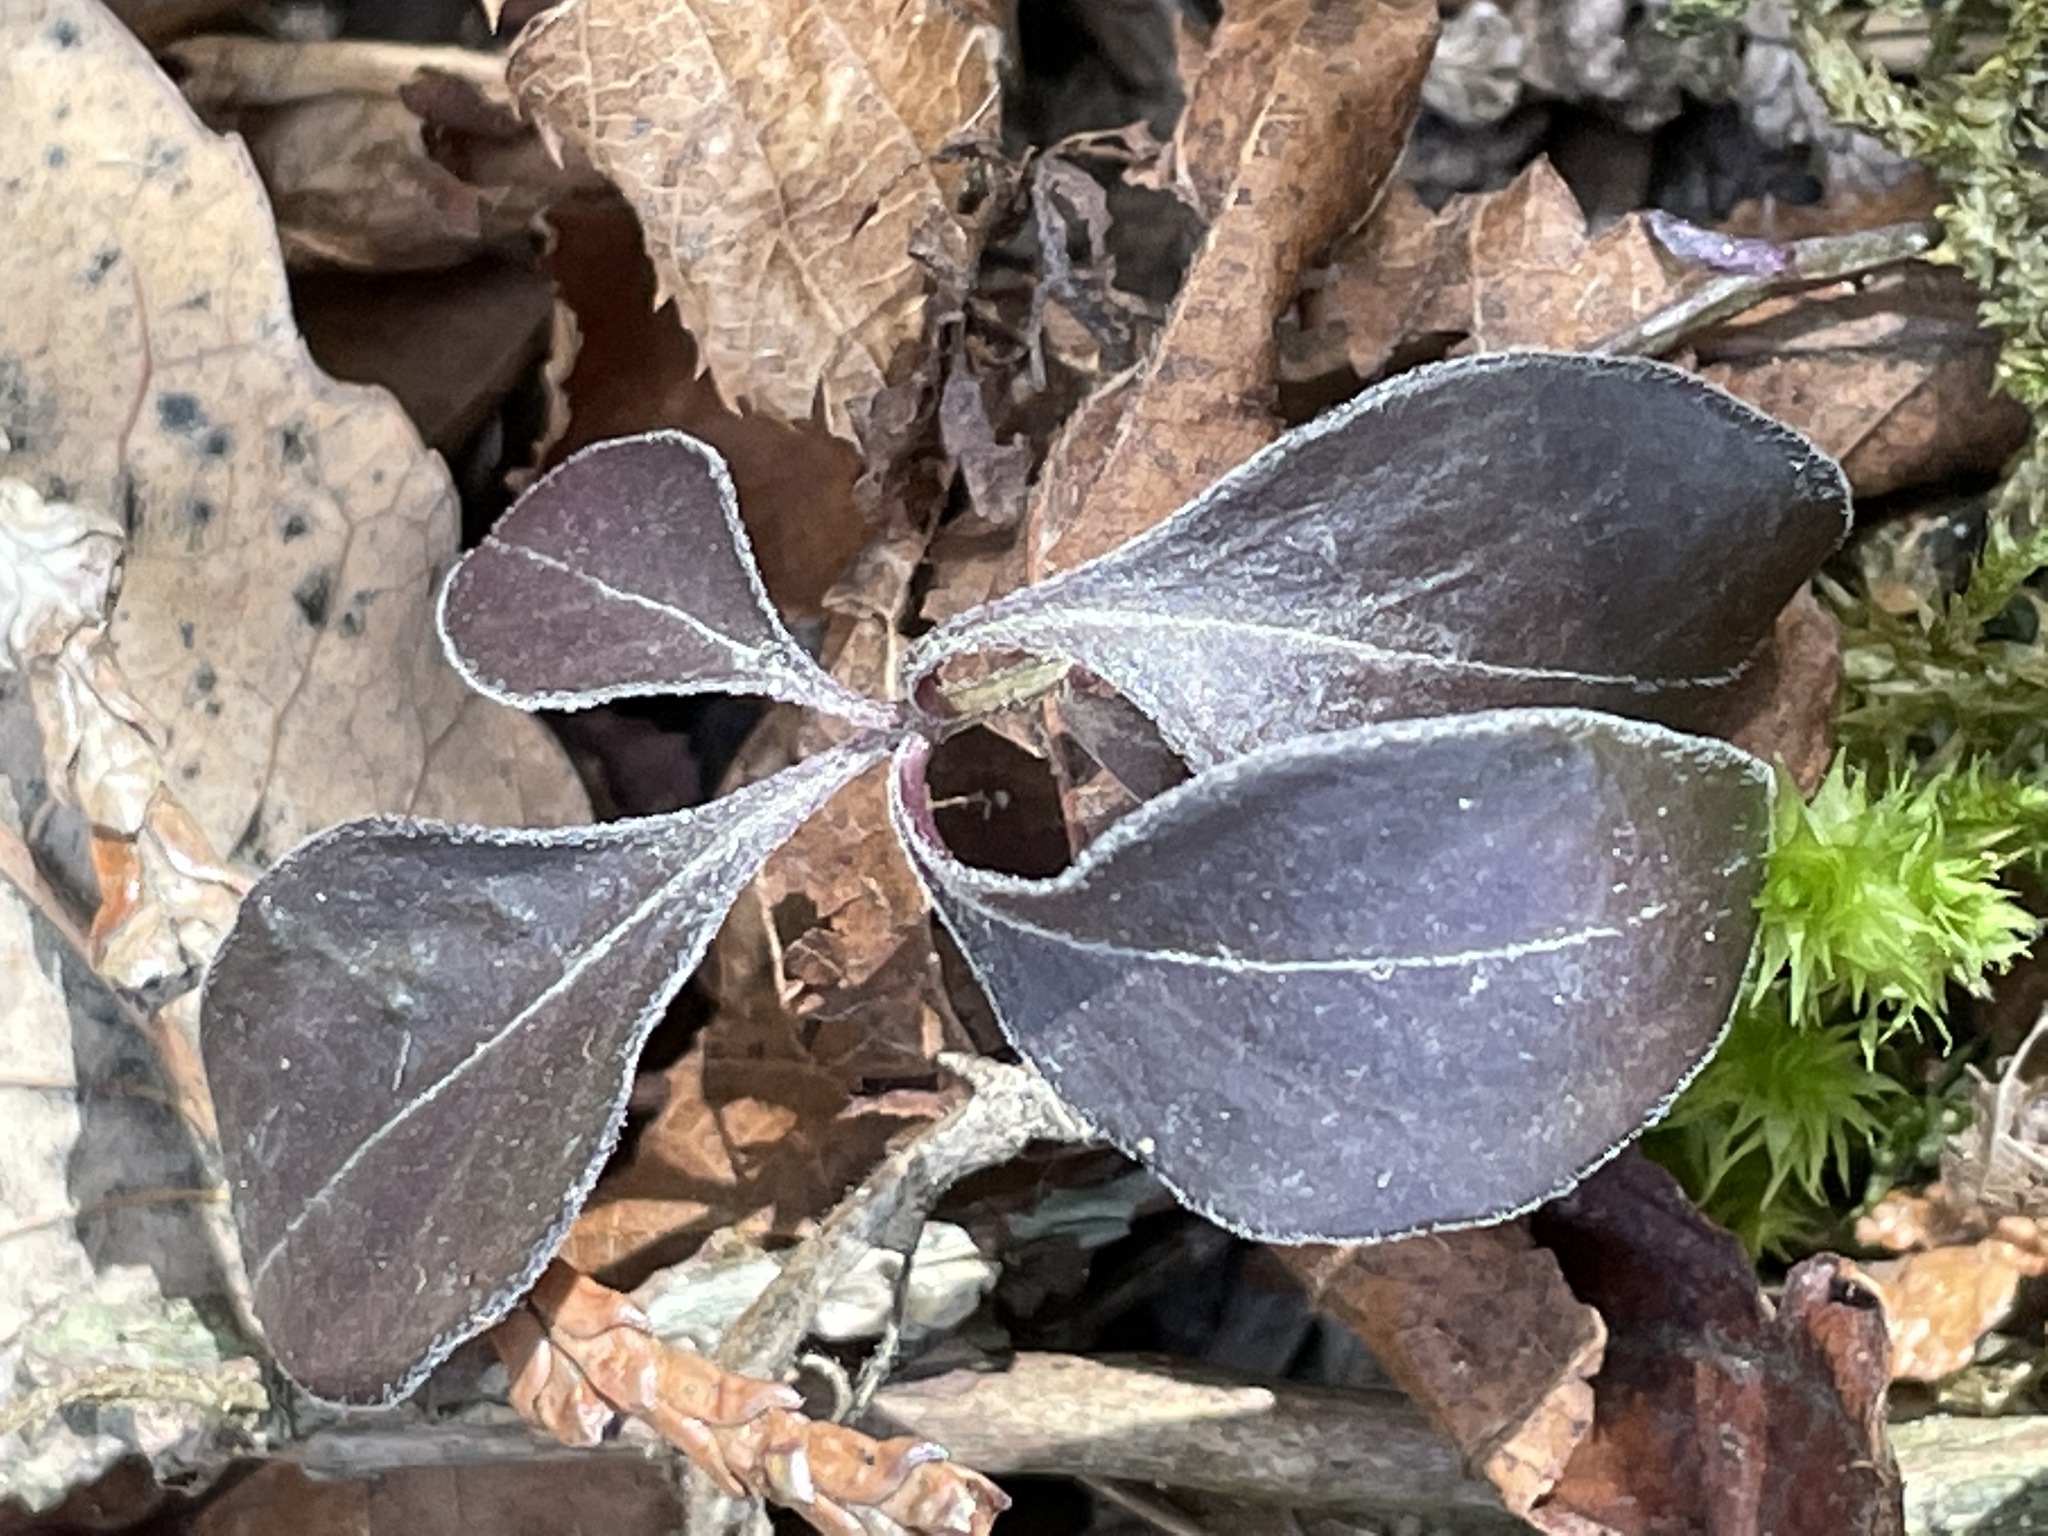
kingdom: Plantae
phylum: Tracheophyta
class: Magnoliopsida
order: Ericales
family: Ericaceae
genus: Gaultheria
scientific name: Gaultheria procumbens
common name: Checkerberry
